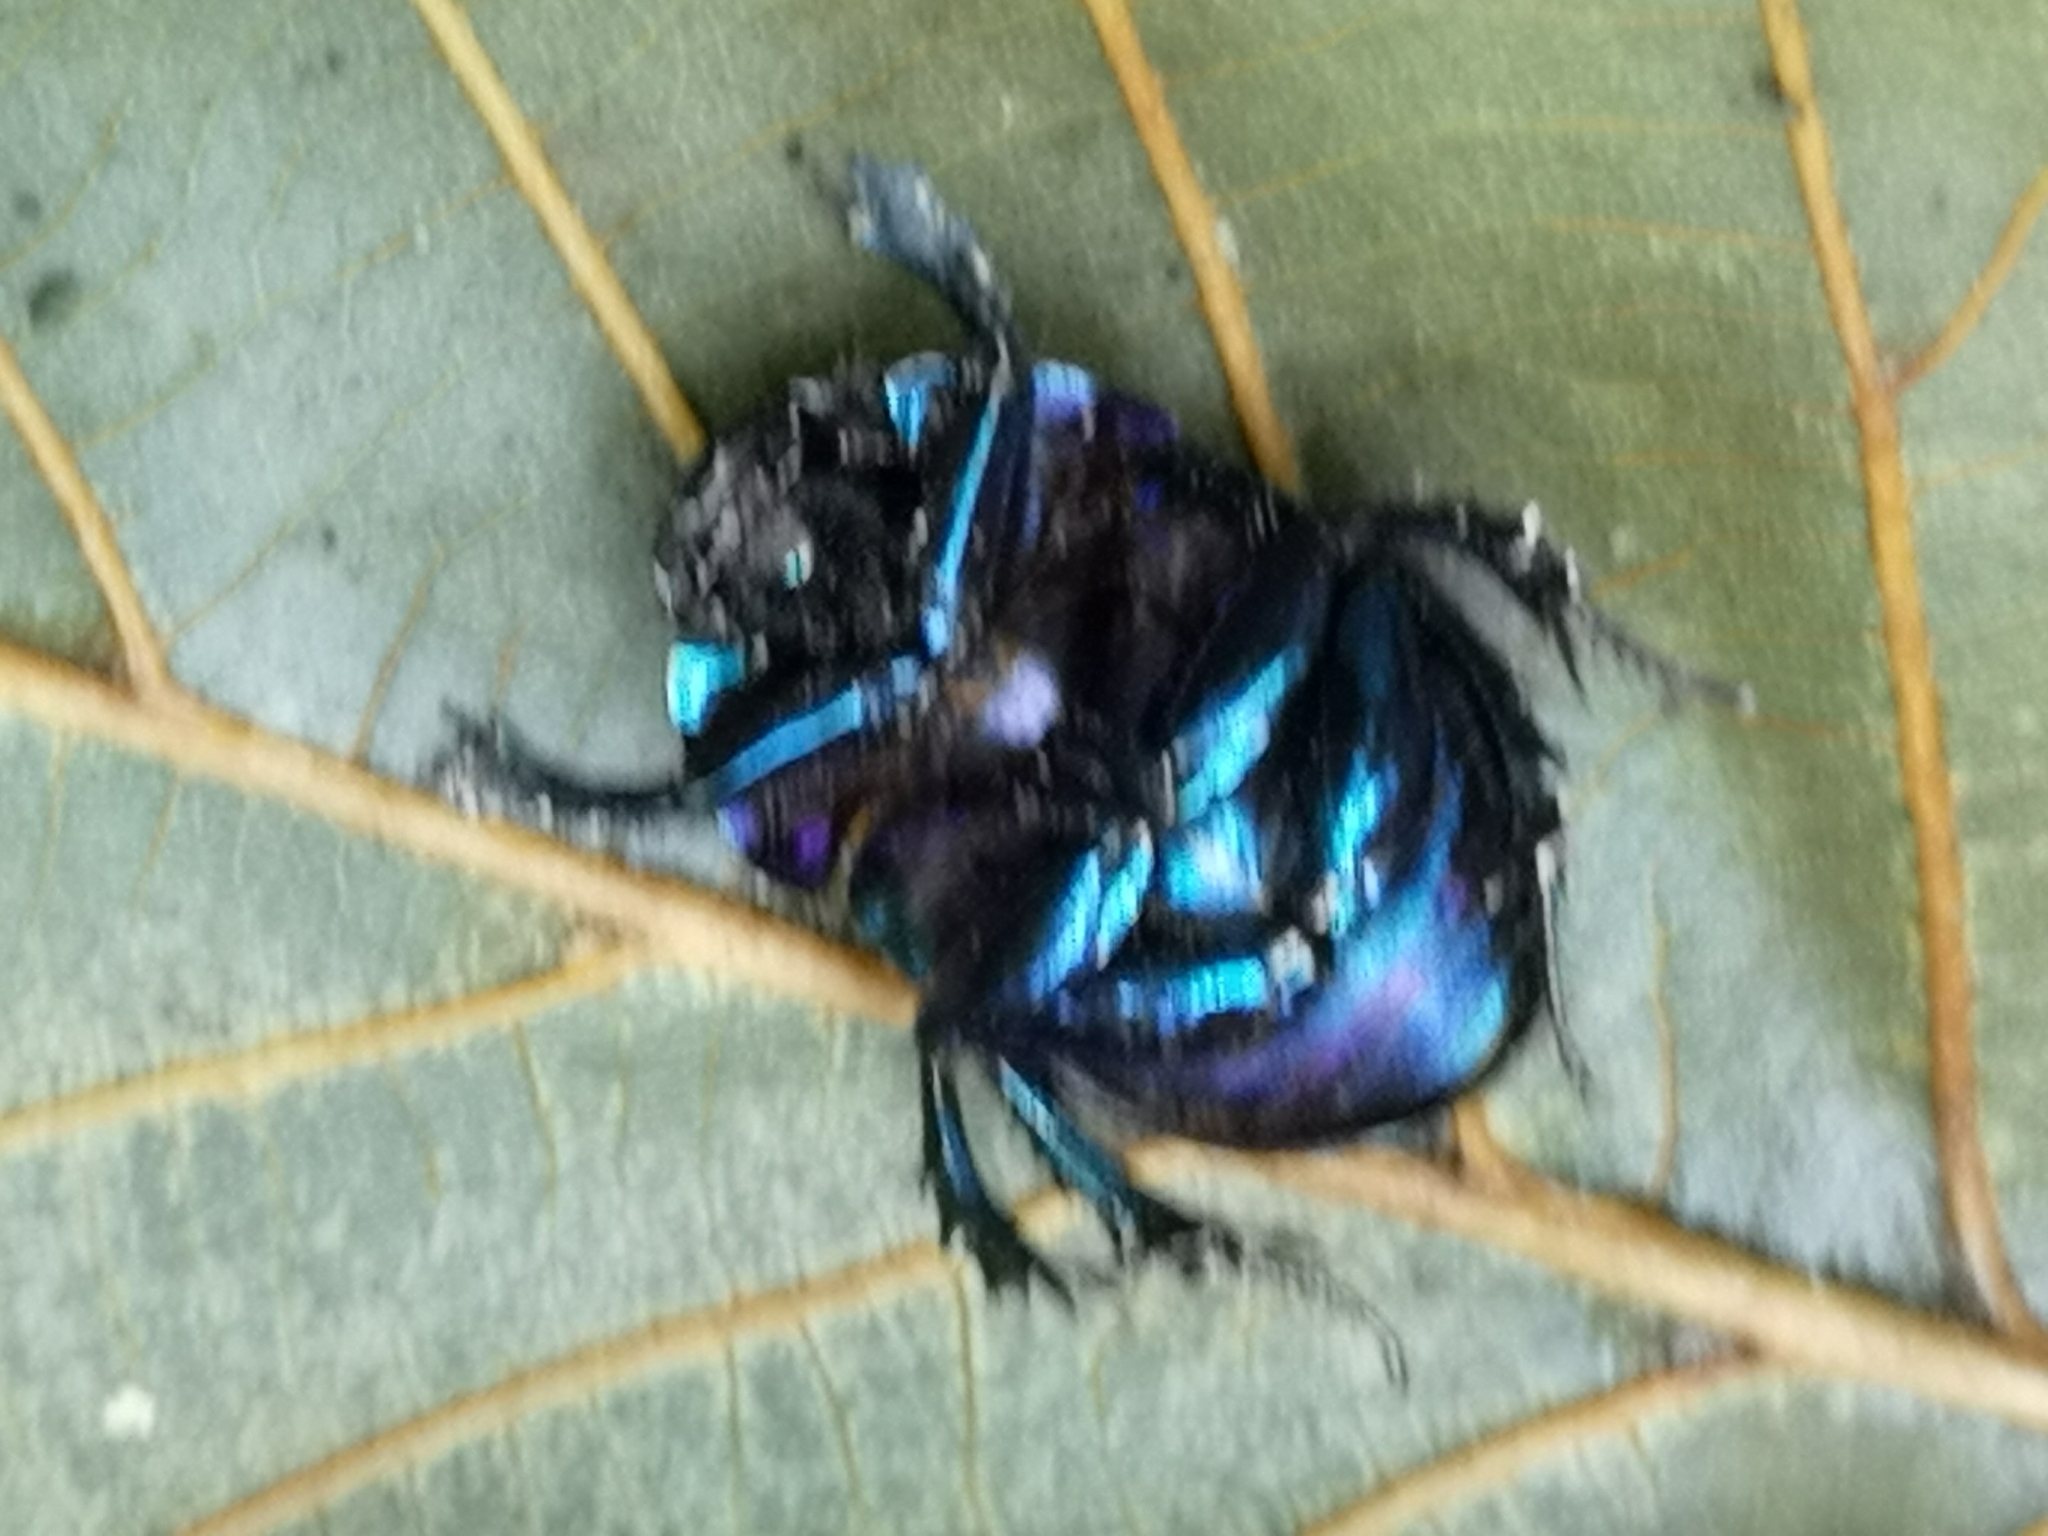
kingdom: Animalia
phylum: Arthropoda
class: Insecta
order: Coleoptera
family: Geotrupidae
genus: Anoplotrupes
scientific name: Anoplotrupes stercorosus
